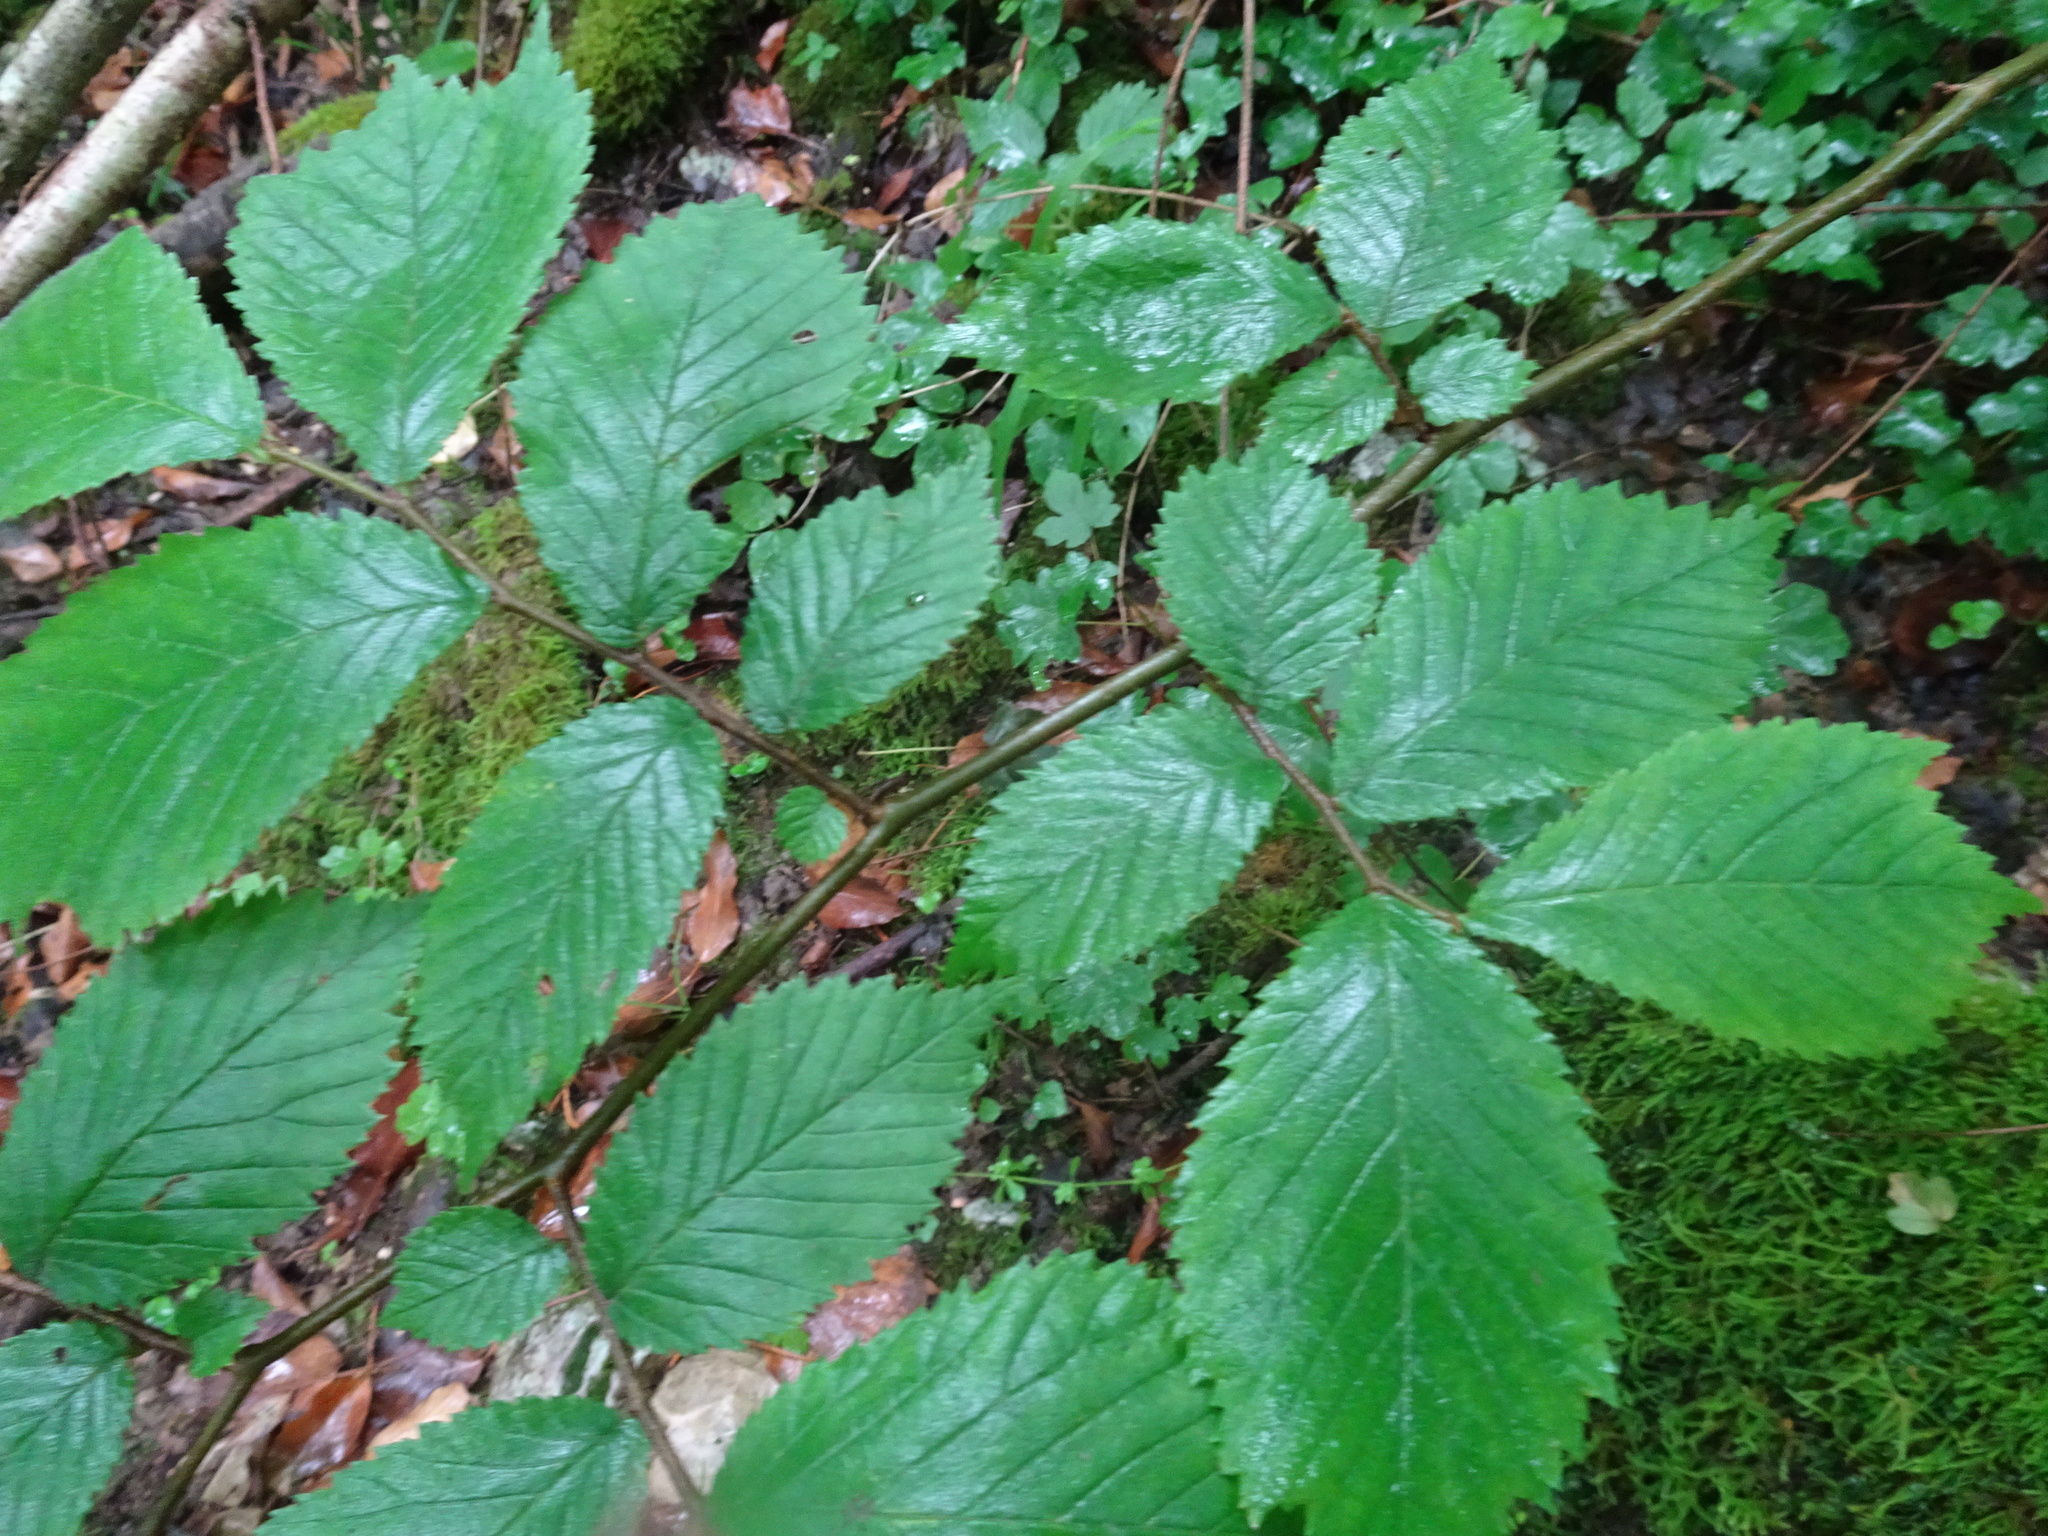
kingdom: Plantae
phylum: Tracheophyta
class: Magnoliopsida
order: Rosales
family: Ulmaceae
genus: Ulmus
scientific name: Ulmus glabra
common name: Wych elm
